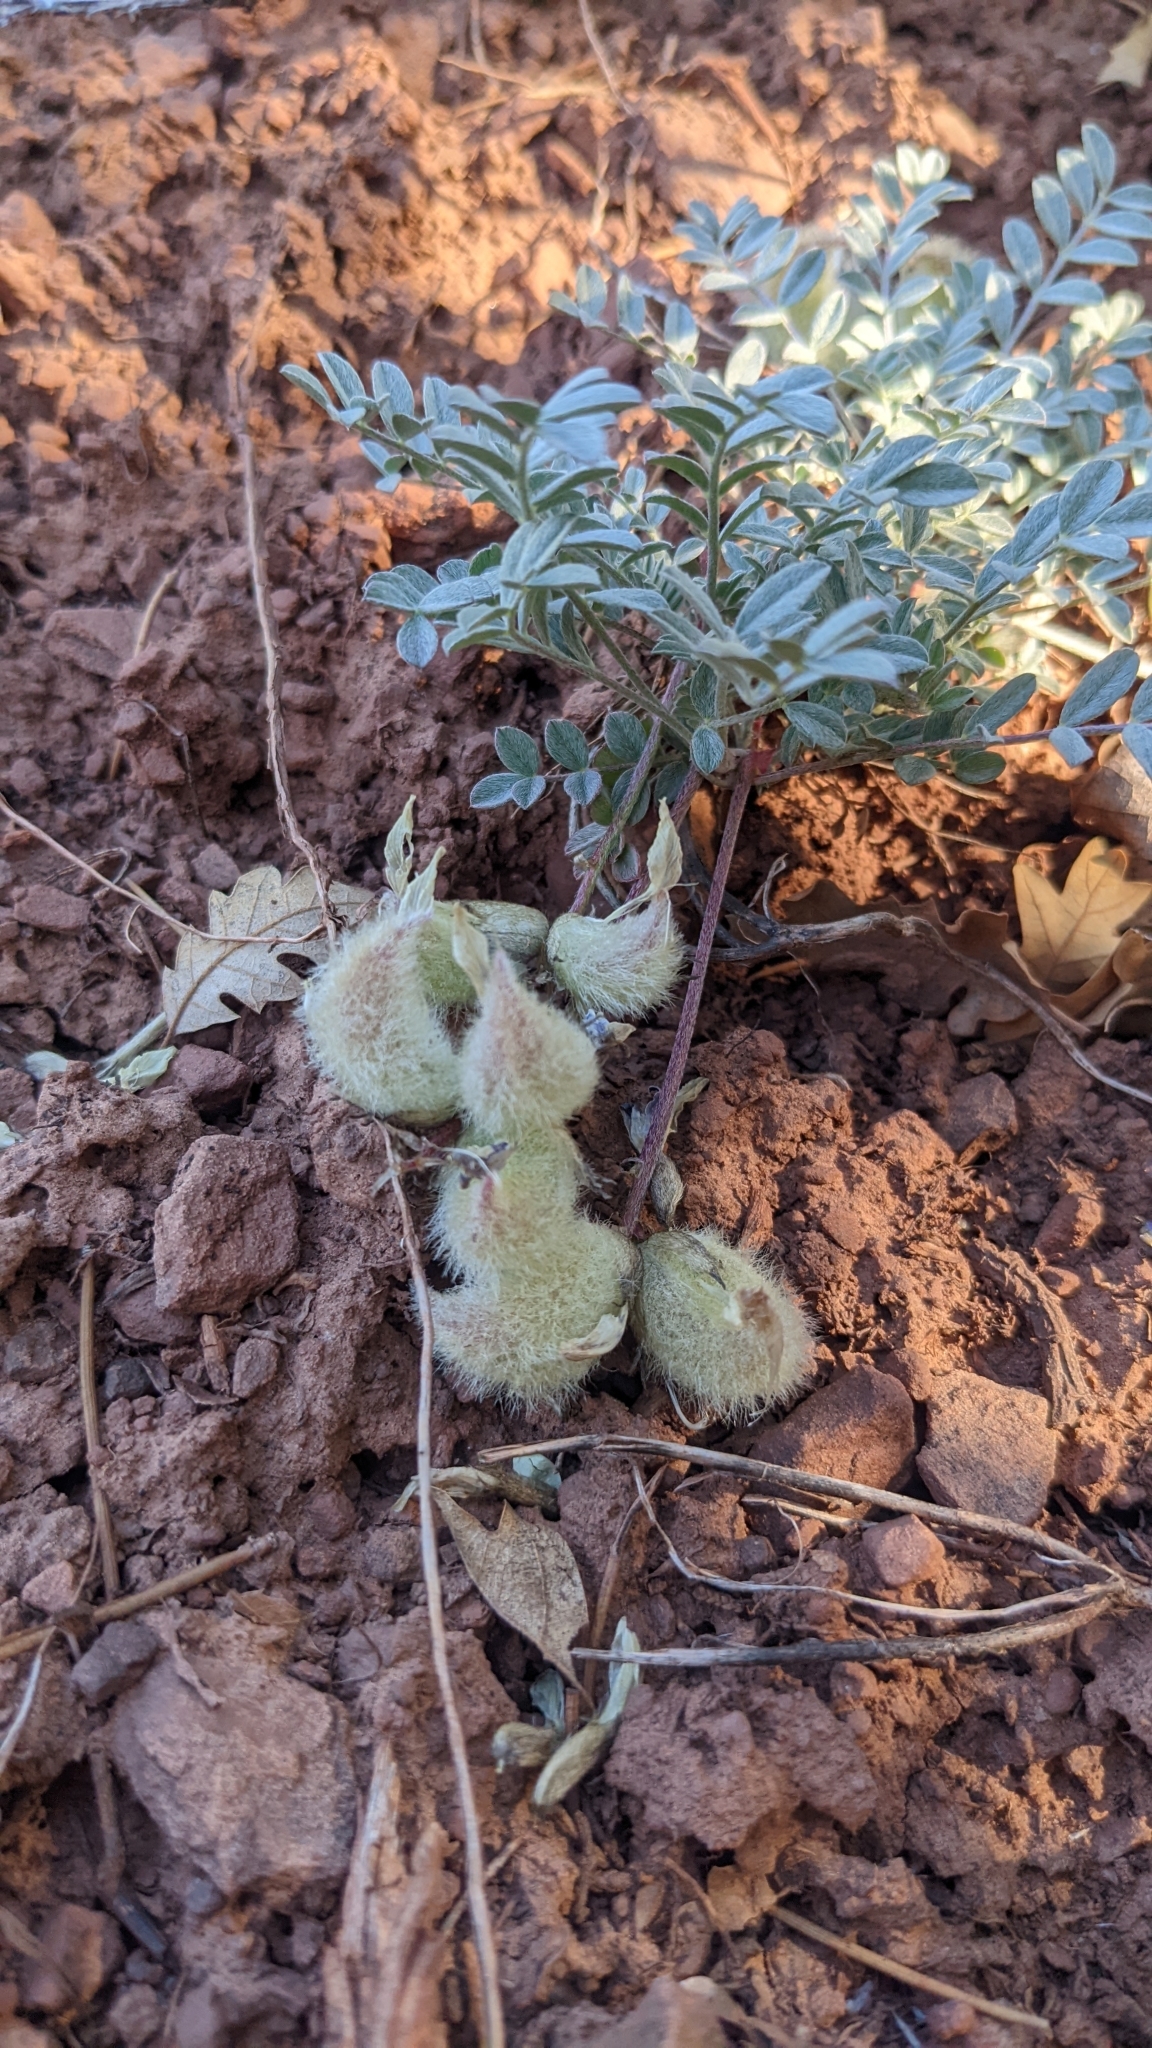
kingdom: Plantae
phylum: Tracheophyta
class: Magnoliopsida
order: Fabales
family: Fabaceae
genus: Astragalus
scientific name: Astragalus concordius
